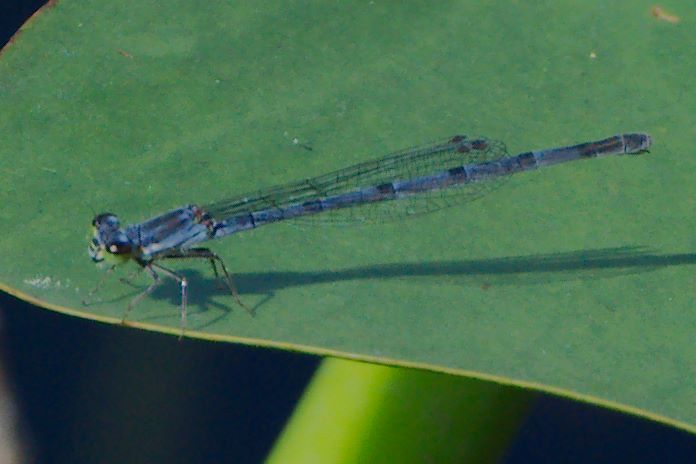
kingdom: Animalia
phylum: Arthropoda
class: Insecta
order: Odonata
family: Coenagrionidae
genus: Ischnura
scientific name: Ischnura posita
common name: Fragile forktail
